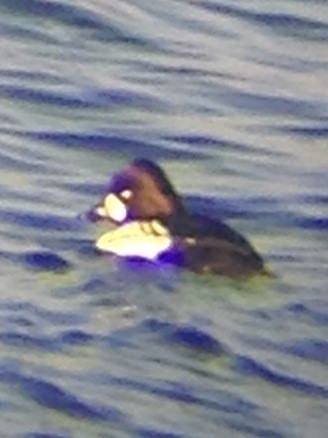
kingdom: Animalia
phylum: Chordata
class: Aves
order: Anseriformes
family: Anatidae
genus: Bucephala
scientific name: Bucephala
